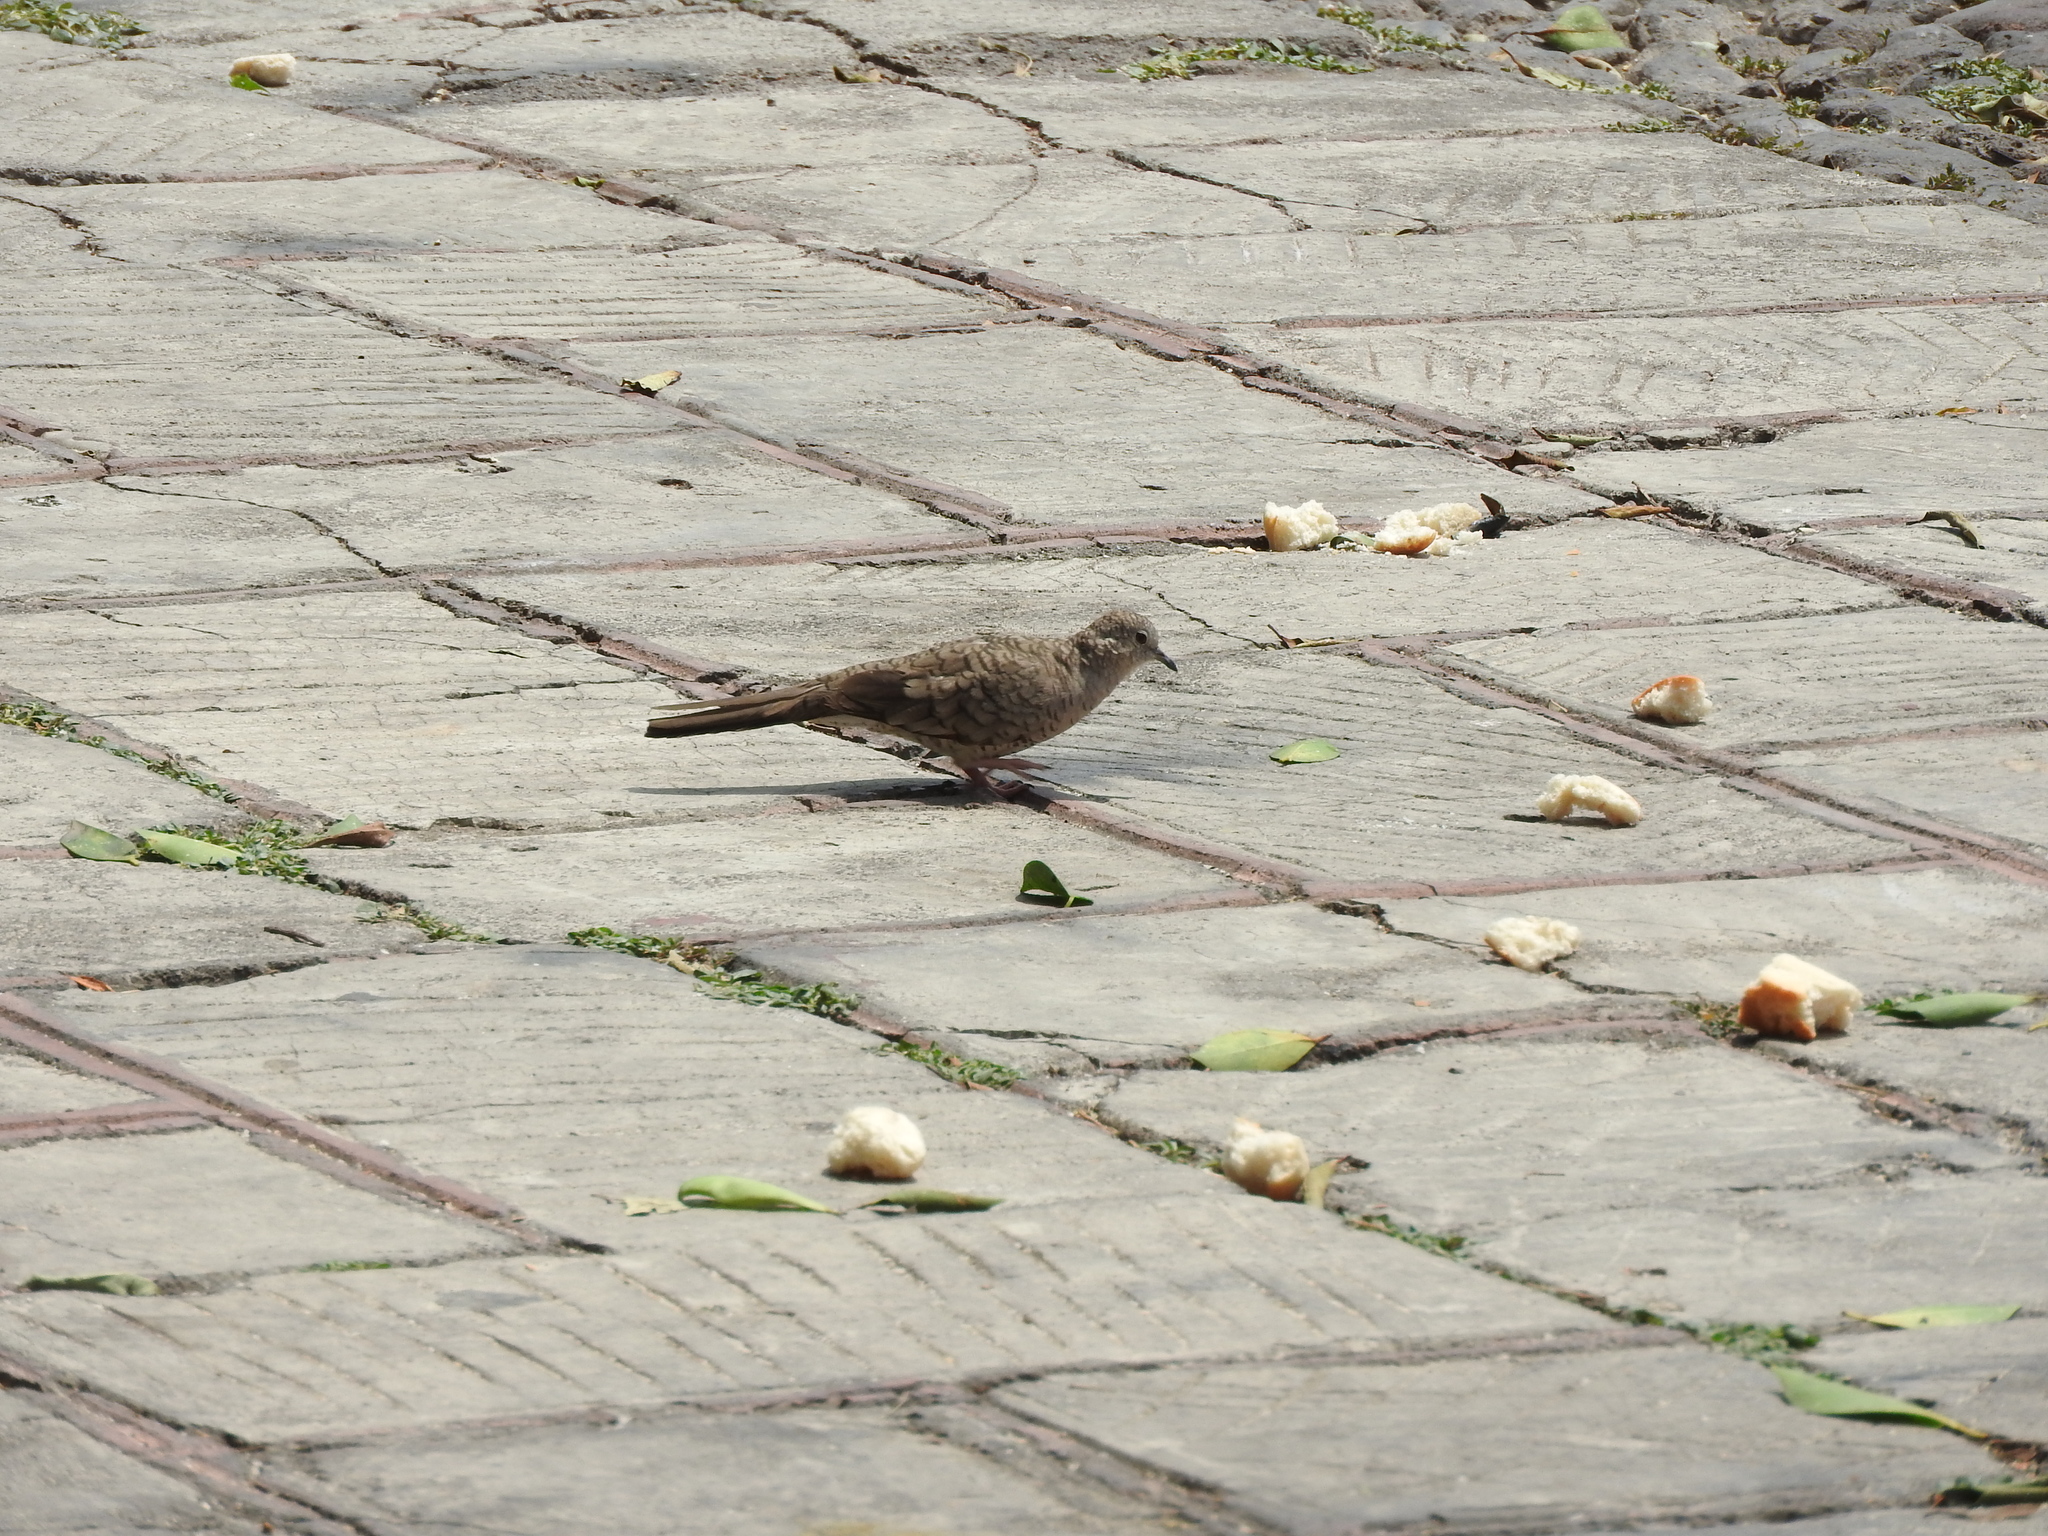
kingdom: Animalia
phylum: Chordata
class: Aves
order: Columbiformes
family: Columbidae
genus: Columbina
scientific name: Columbina inca
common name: Inca dove
